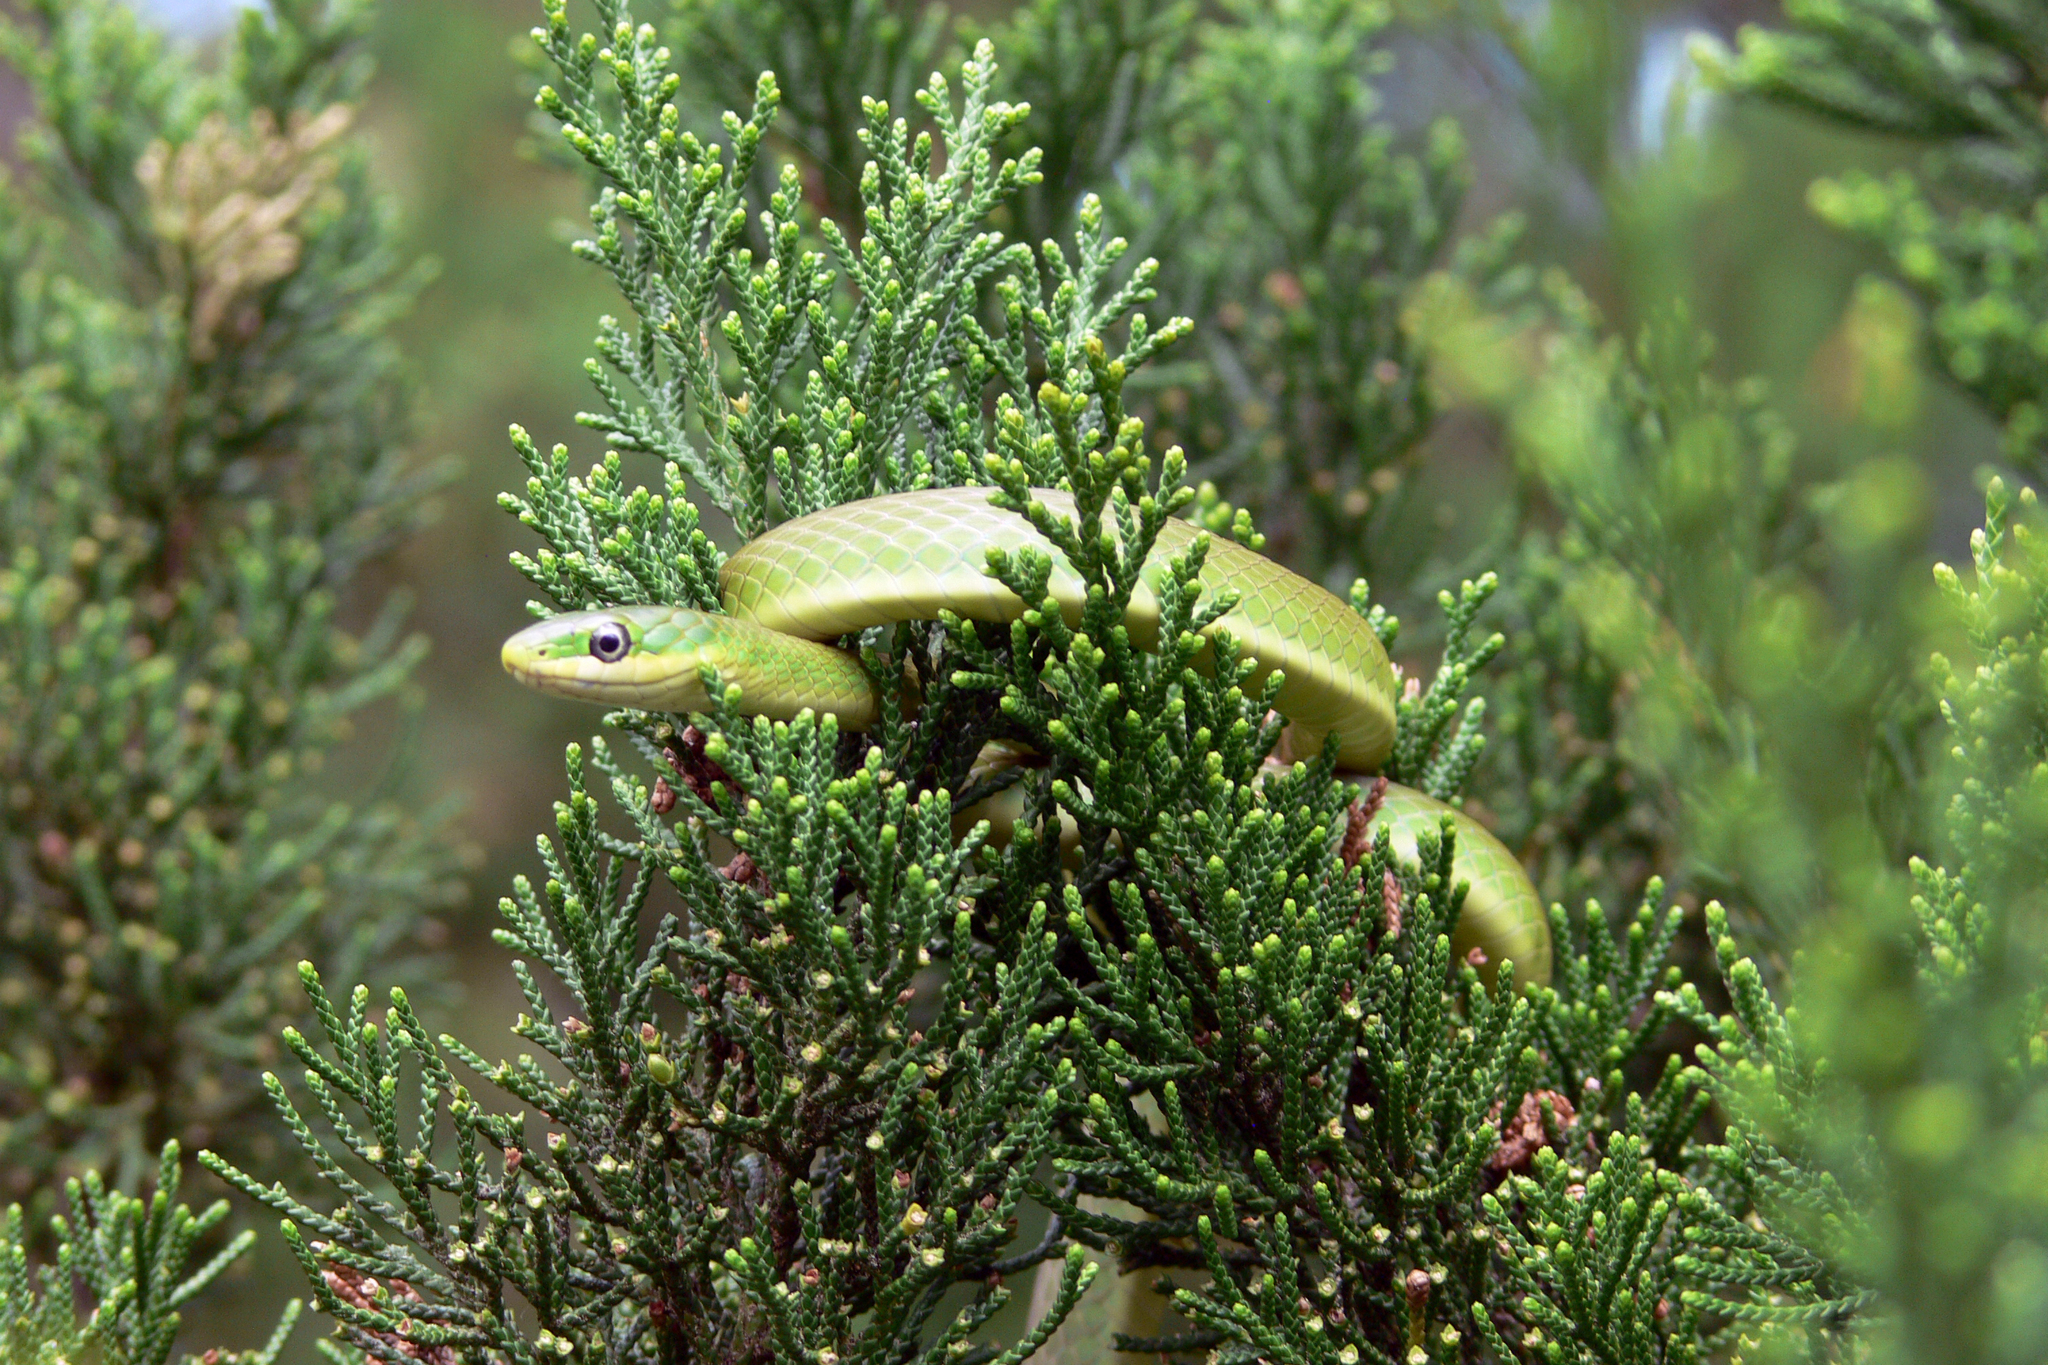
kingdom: Animalia
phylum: Chordata
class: Squamata
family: Colubridae
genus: Opheodrys
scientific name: Opheodrys aestivus
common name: Rough greensnake
